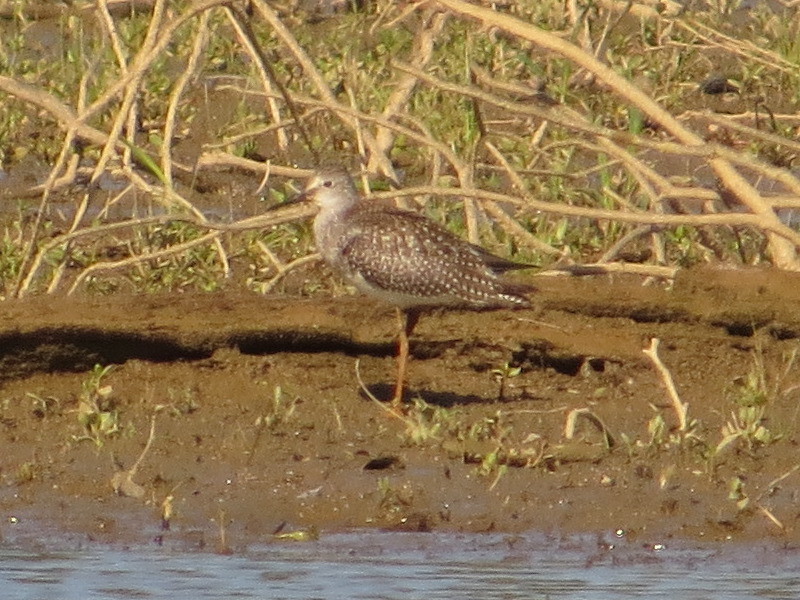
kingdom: Animalia
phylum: Chordata
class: Aves
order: Charadriiformes
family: Scolopacidae
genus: Tringa
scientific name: Tringa flavipes
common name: Lesser yellowlegs
